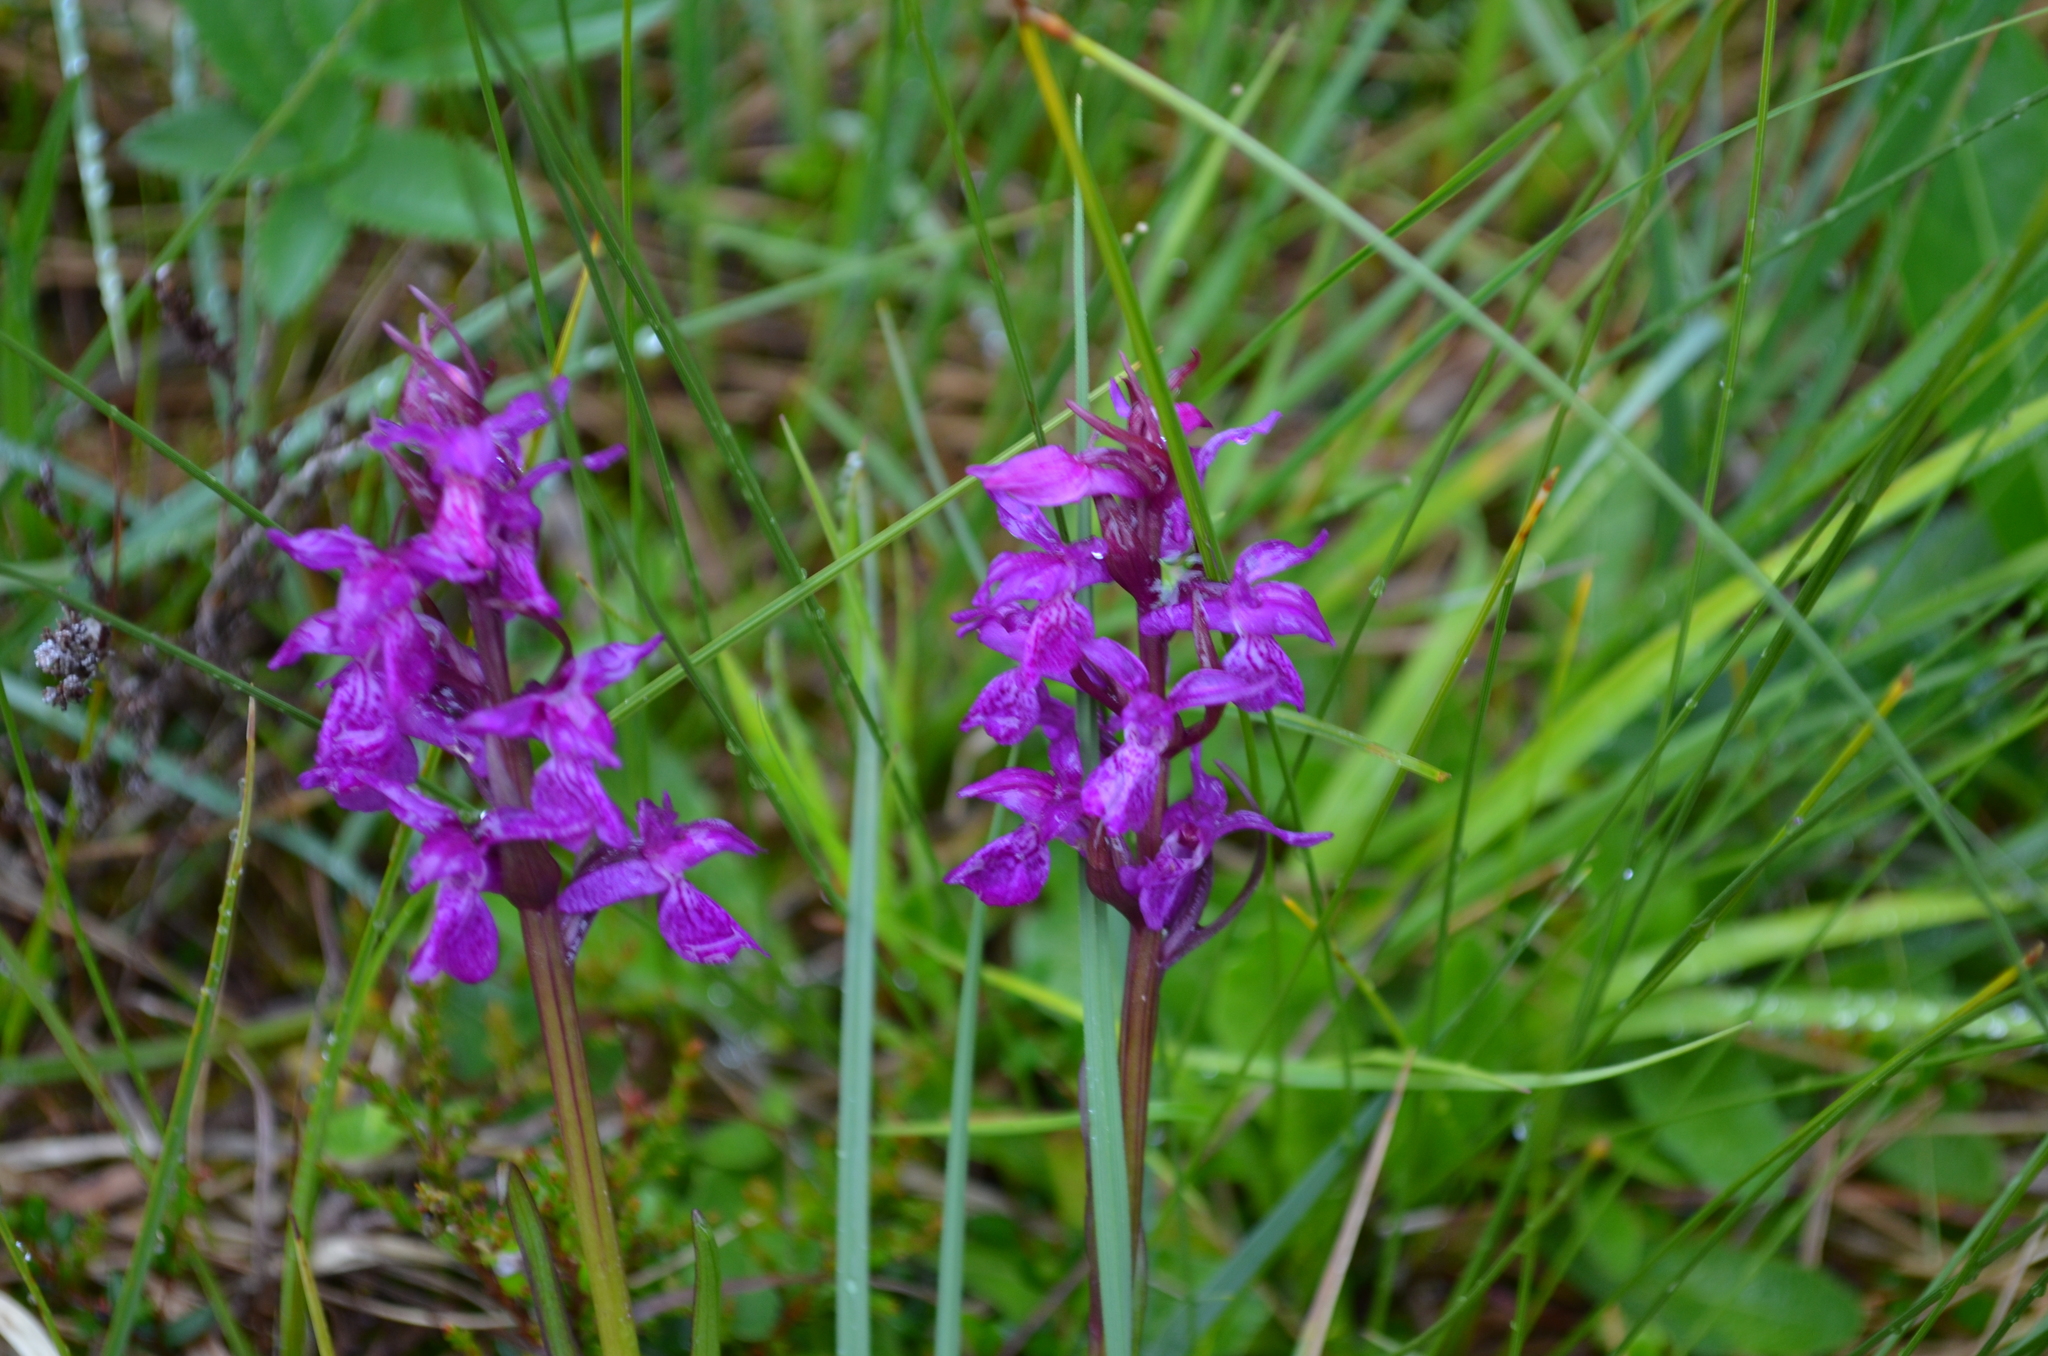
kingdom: Plantae
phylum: Tracheophyta
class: Liliopsida
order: Asparagales
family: Orchidaceae
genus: Orchis
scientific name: Orchis mascula
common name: Early-purple orchid
